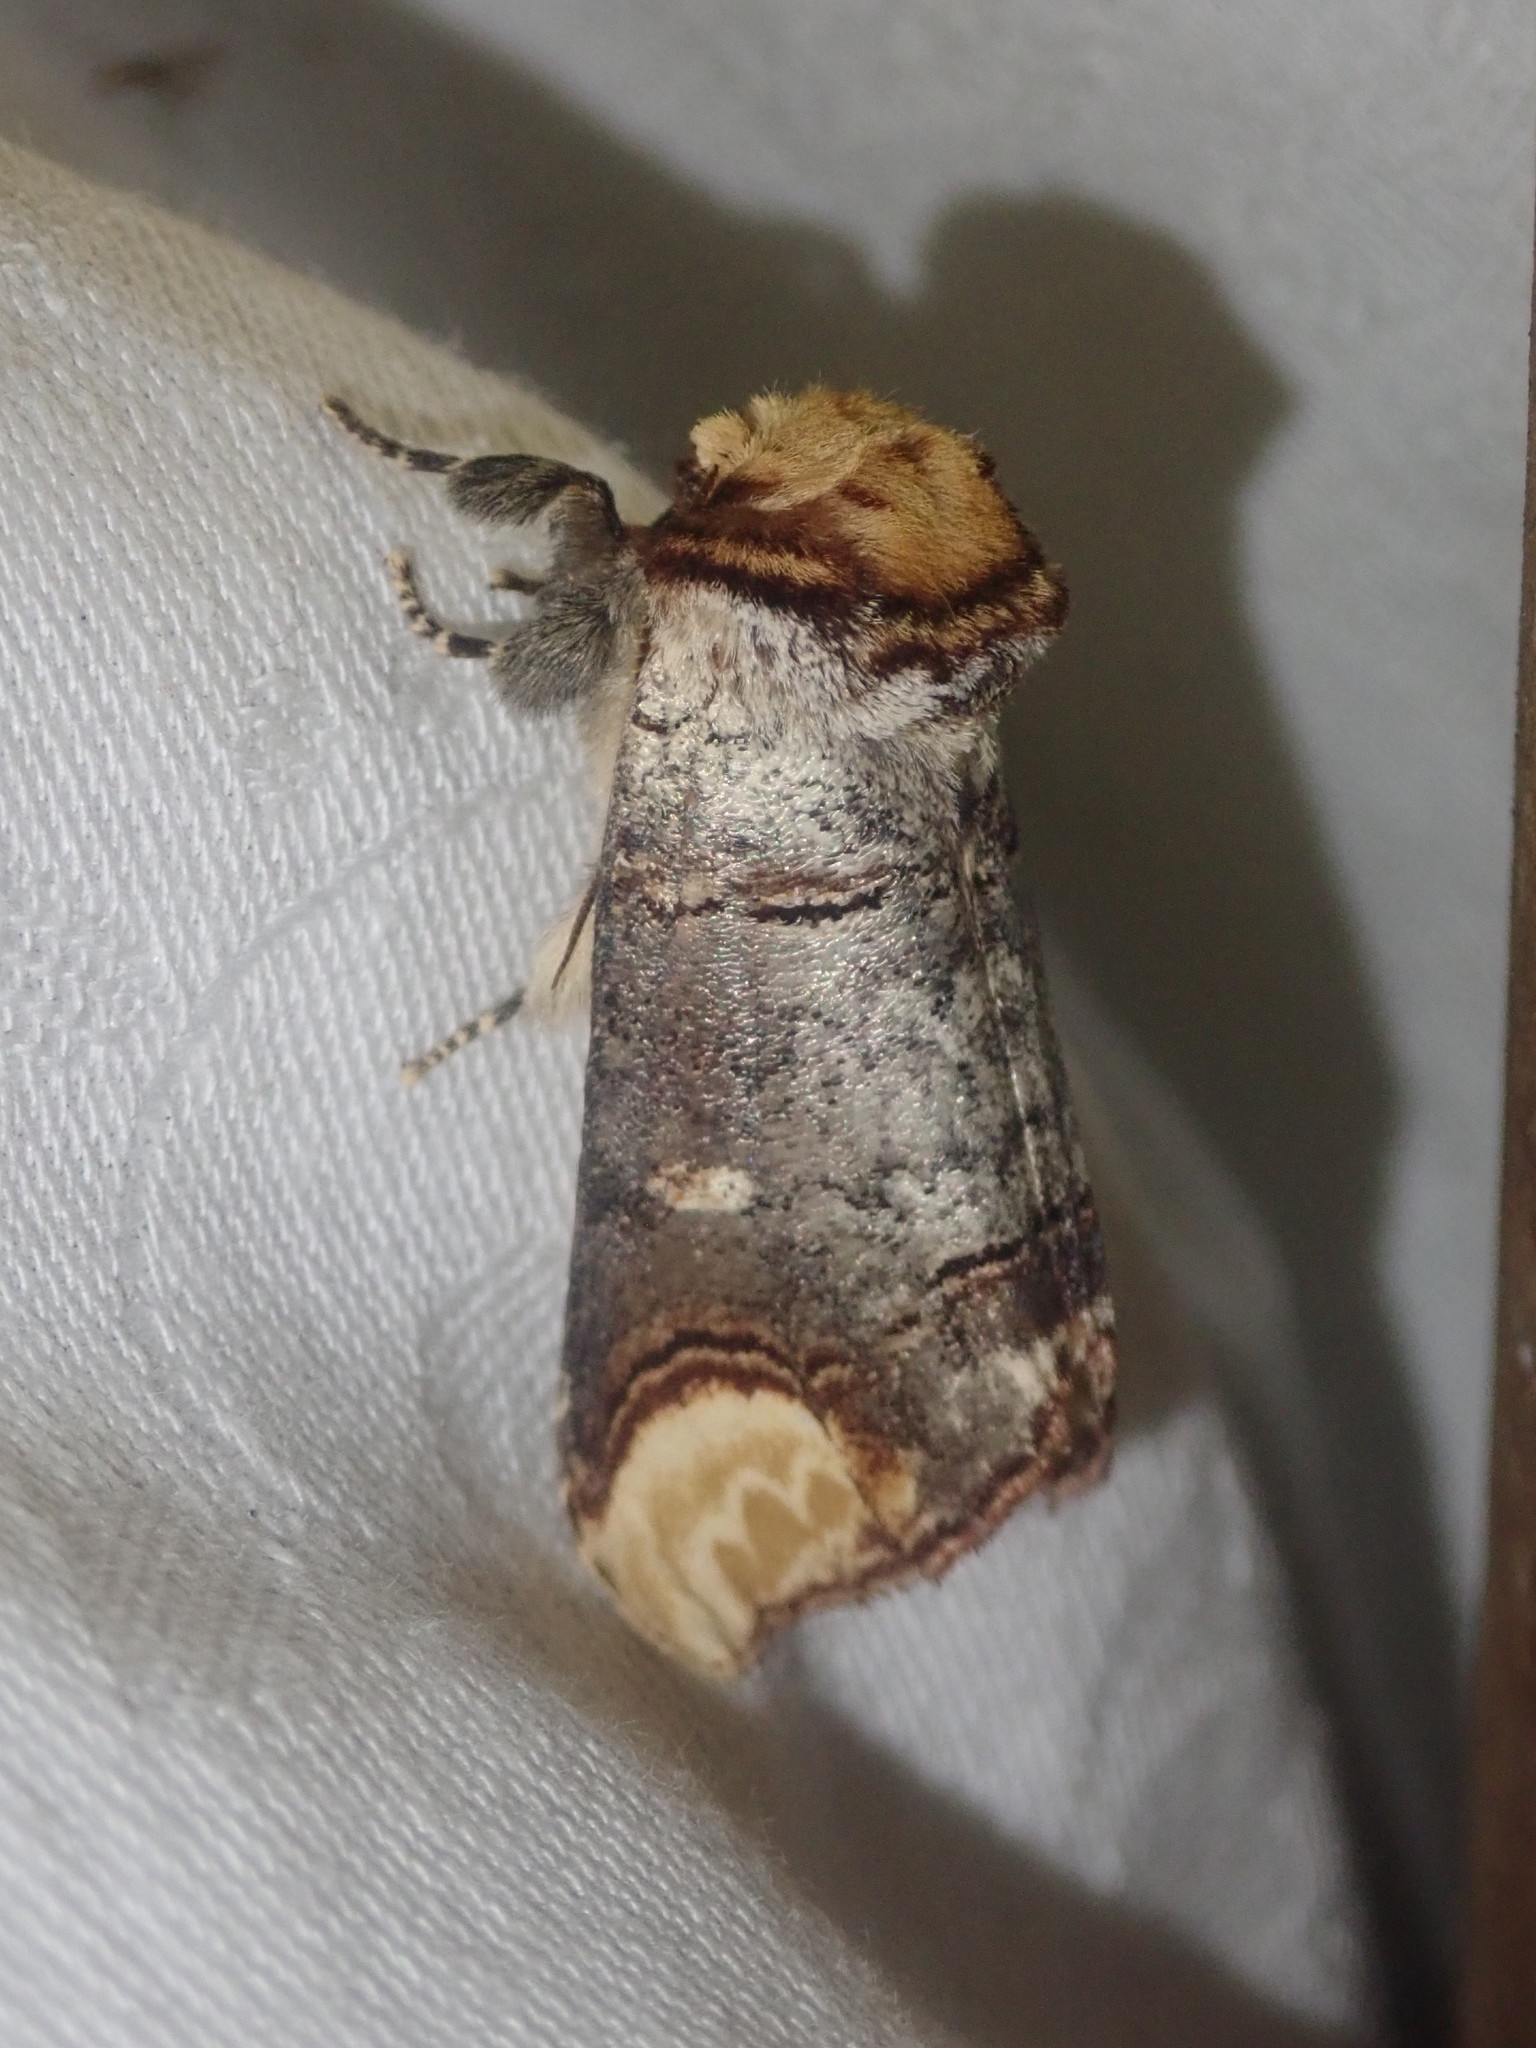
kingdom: Animalia
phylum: Arthropoda
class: Insecta
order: Lepidoptera
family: Notodontidae
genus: Phalera
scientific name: Phalera bucephala
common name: Buff-tip
